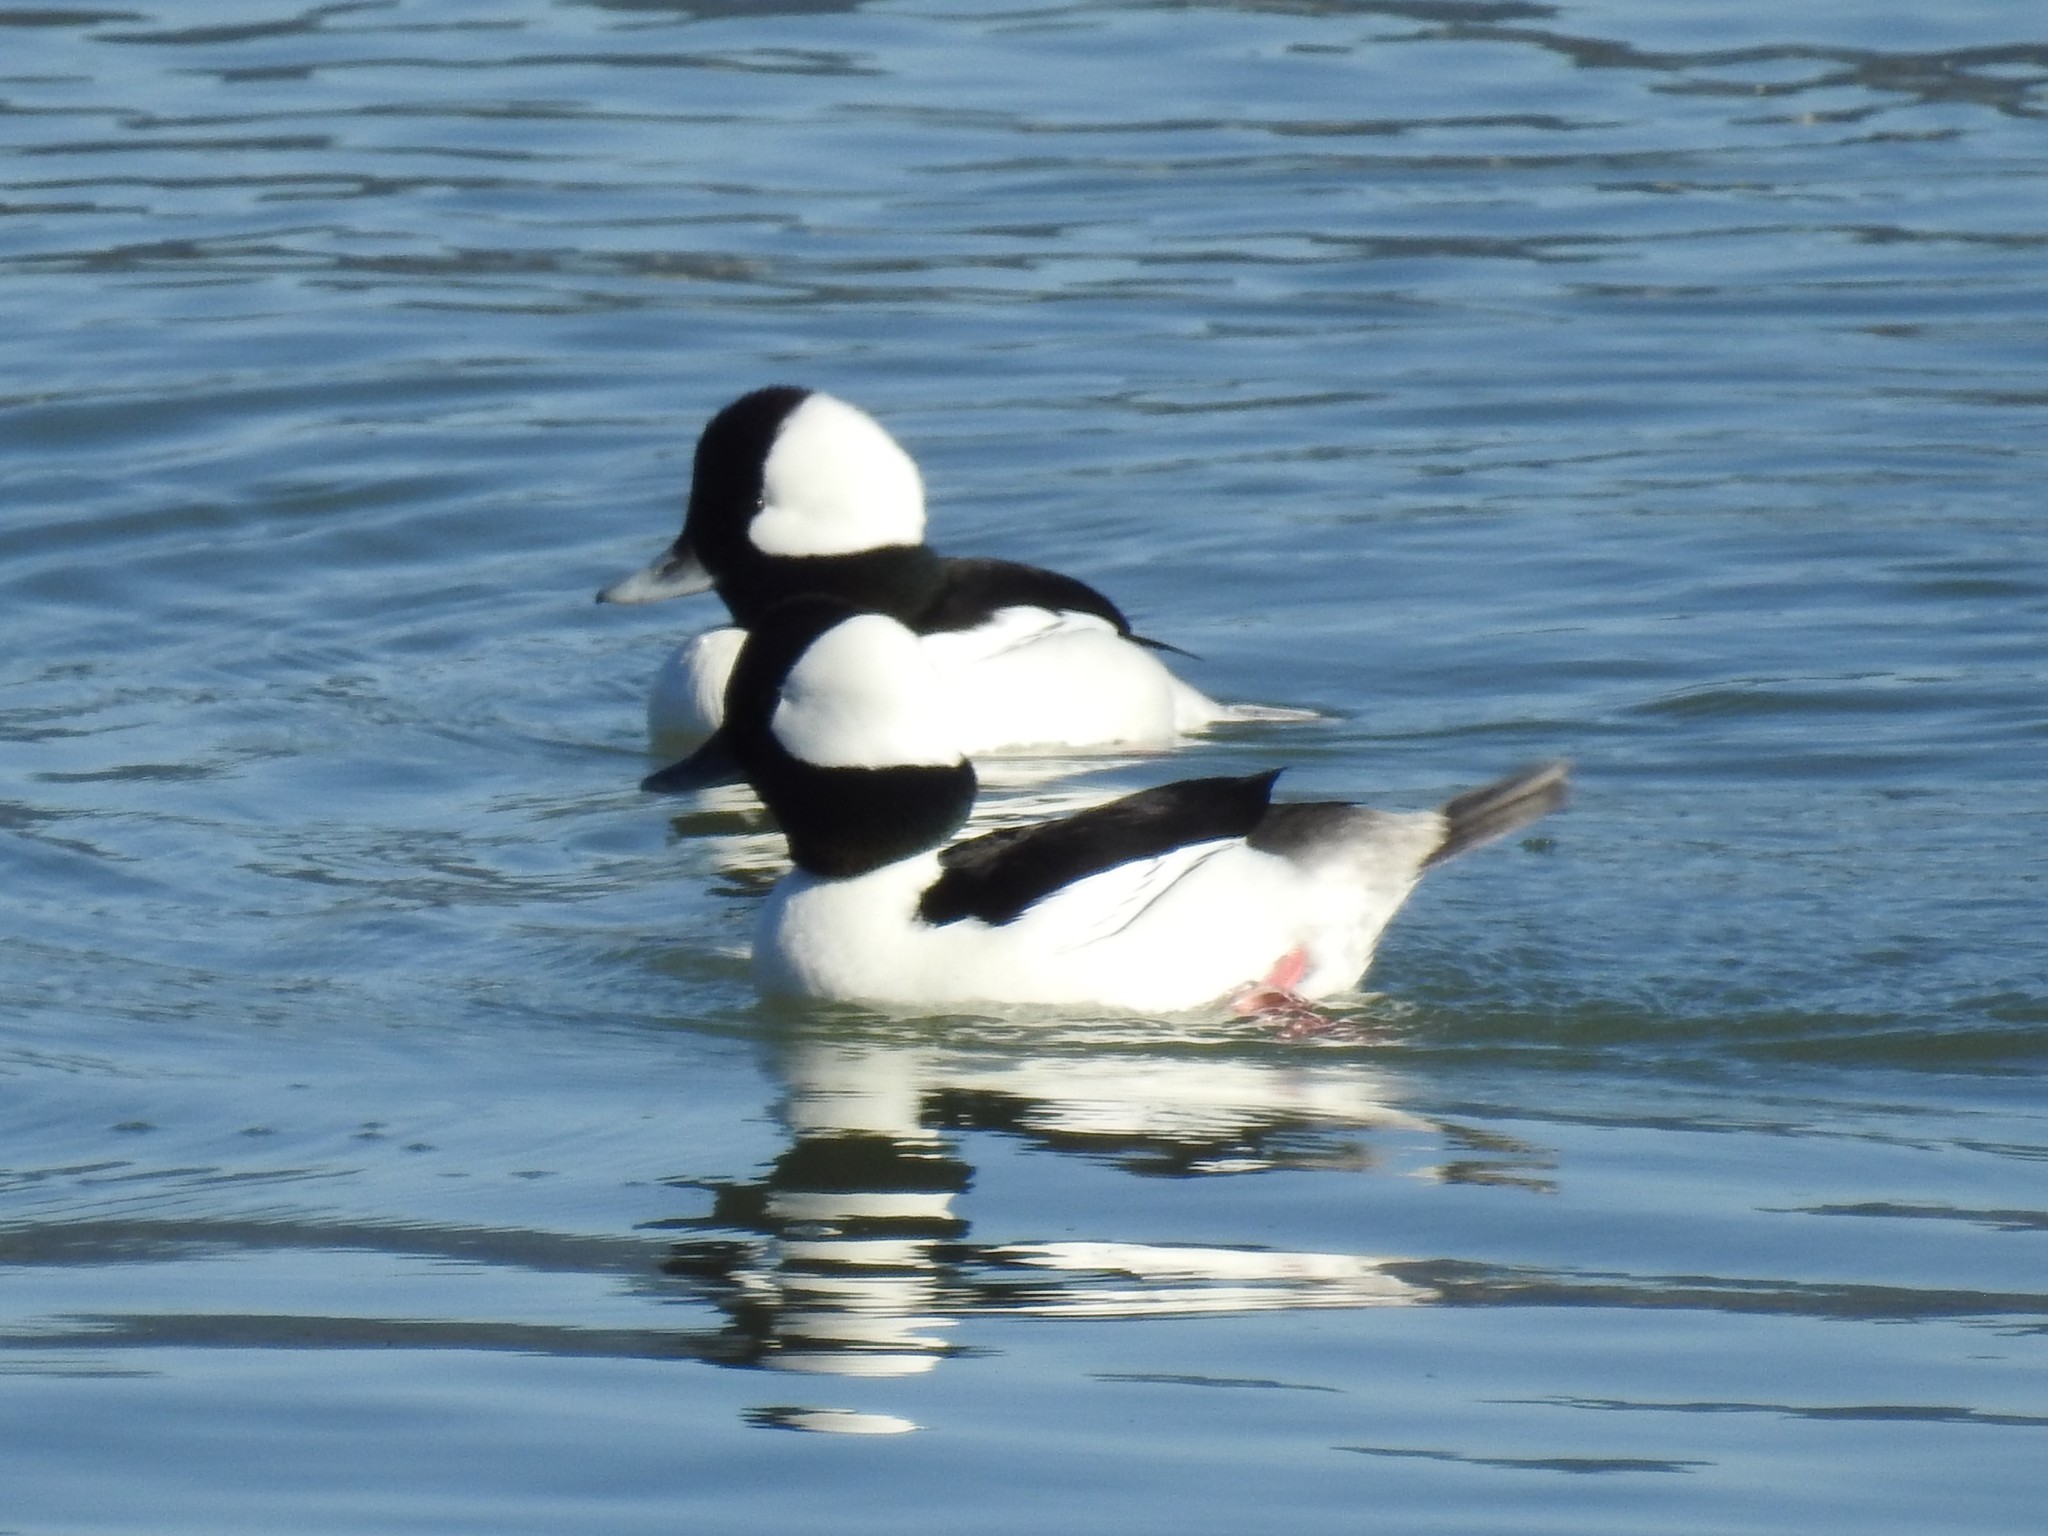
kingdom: Animalia
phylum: Chordata
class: Aves
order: Anseriformes
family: Anatidae
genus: Bucephala
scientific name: Bucephala albeola
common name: Bufflehead
